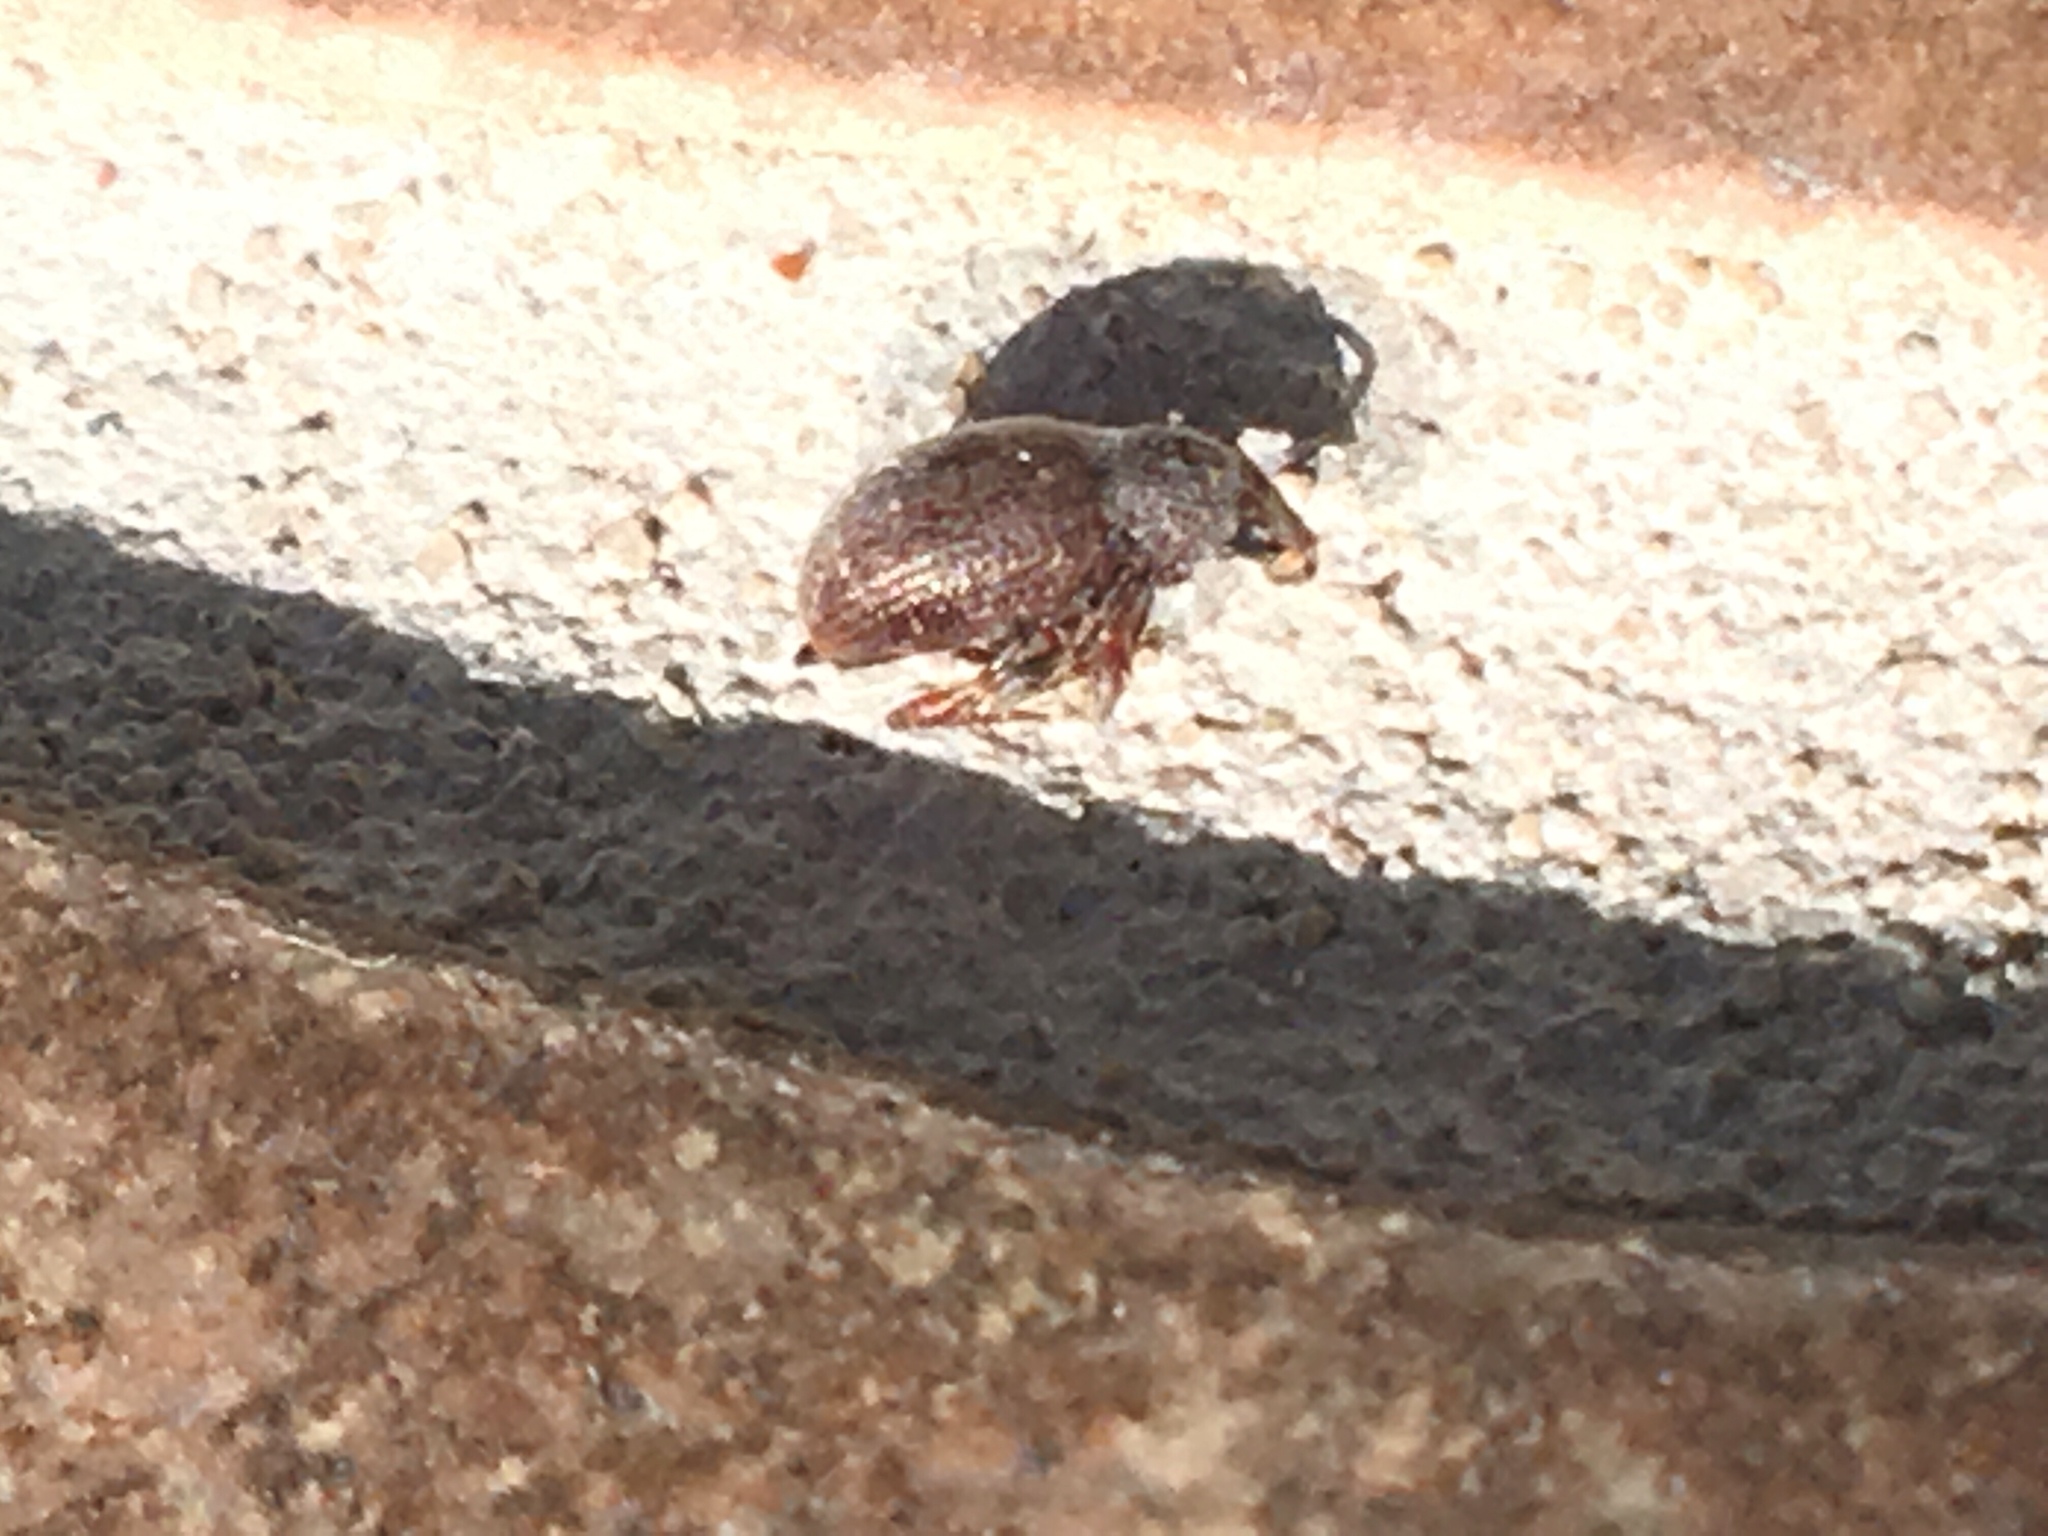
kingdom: Animalia
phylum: Arthropoda
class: Insecta
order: Coleoptera
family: Curculionidae
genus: Otiorhynchus
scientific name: Otiorhynchus ovatus
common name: Strawberry root weevil
